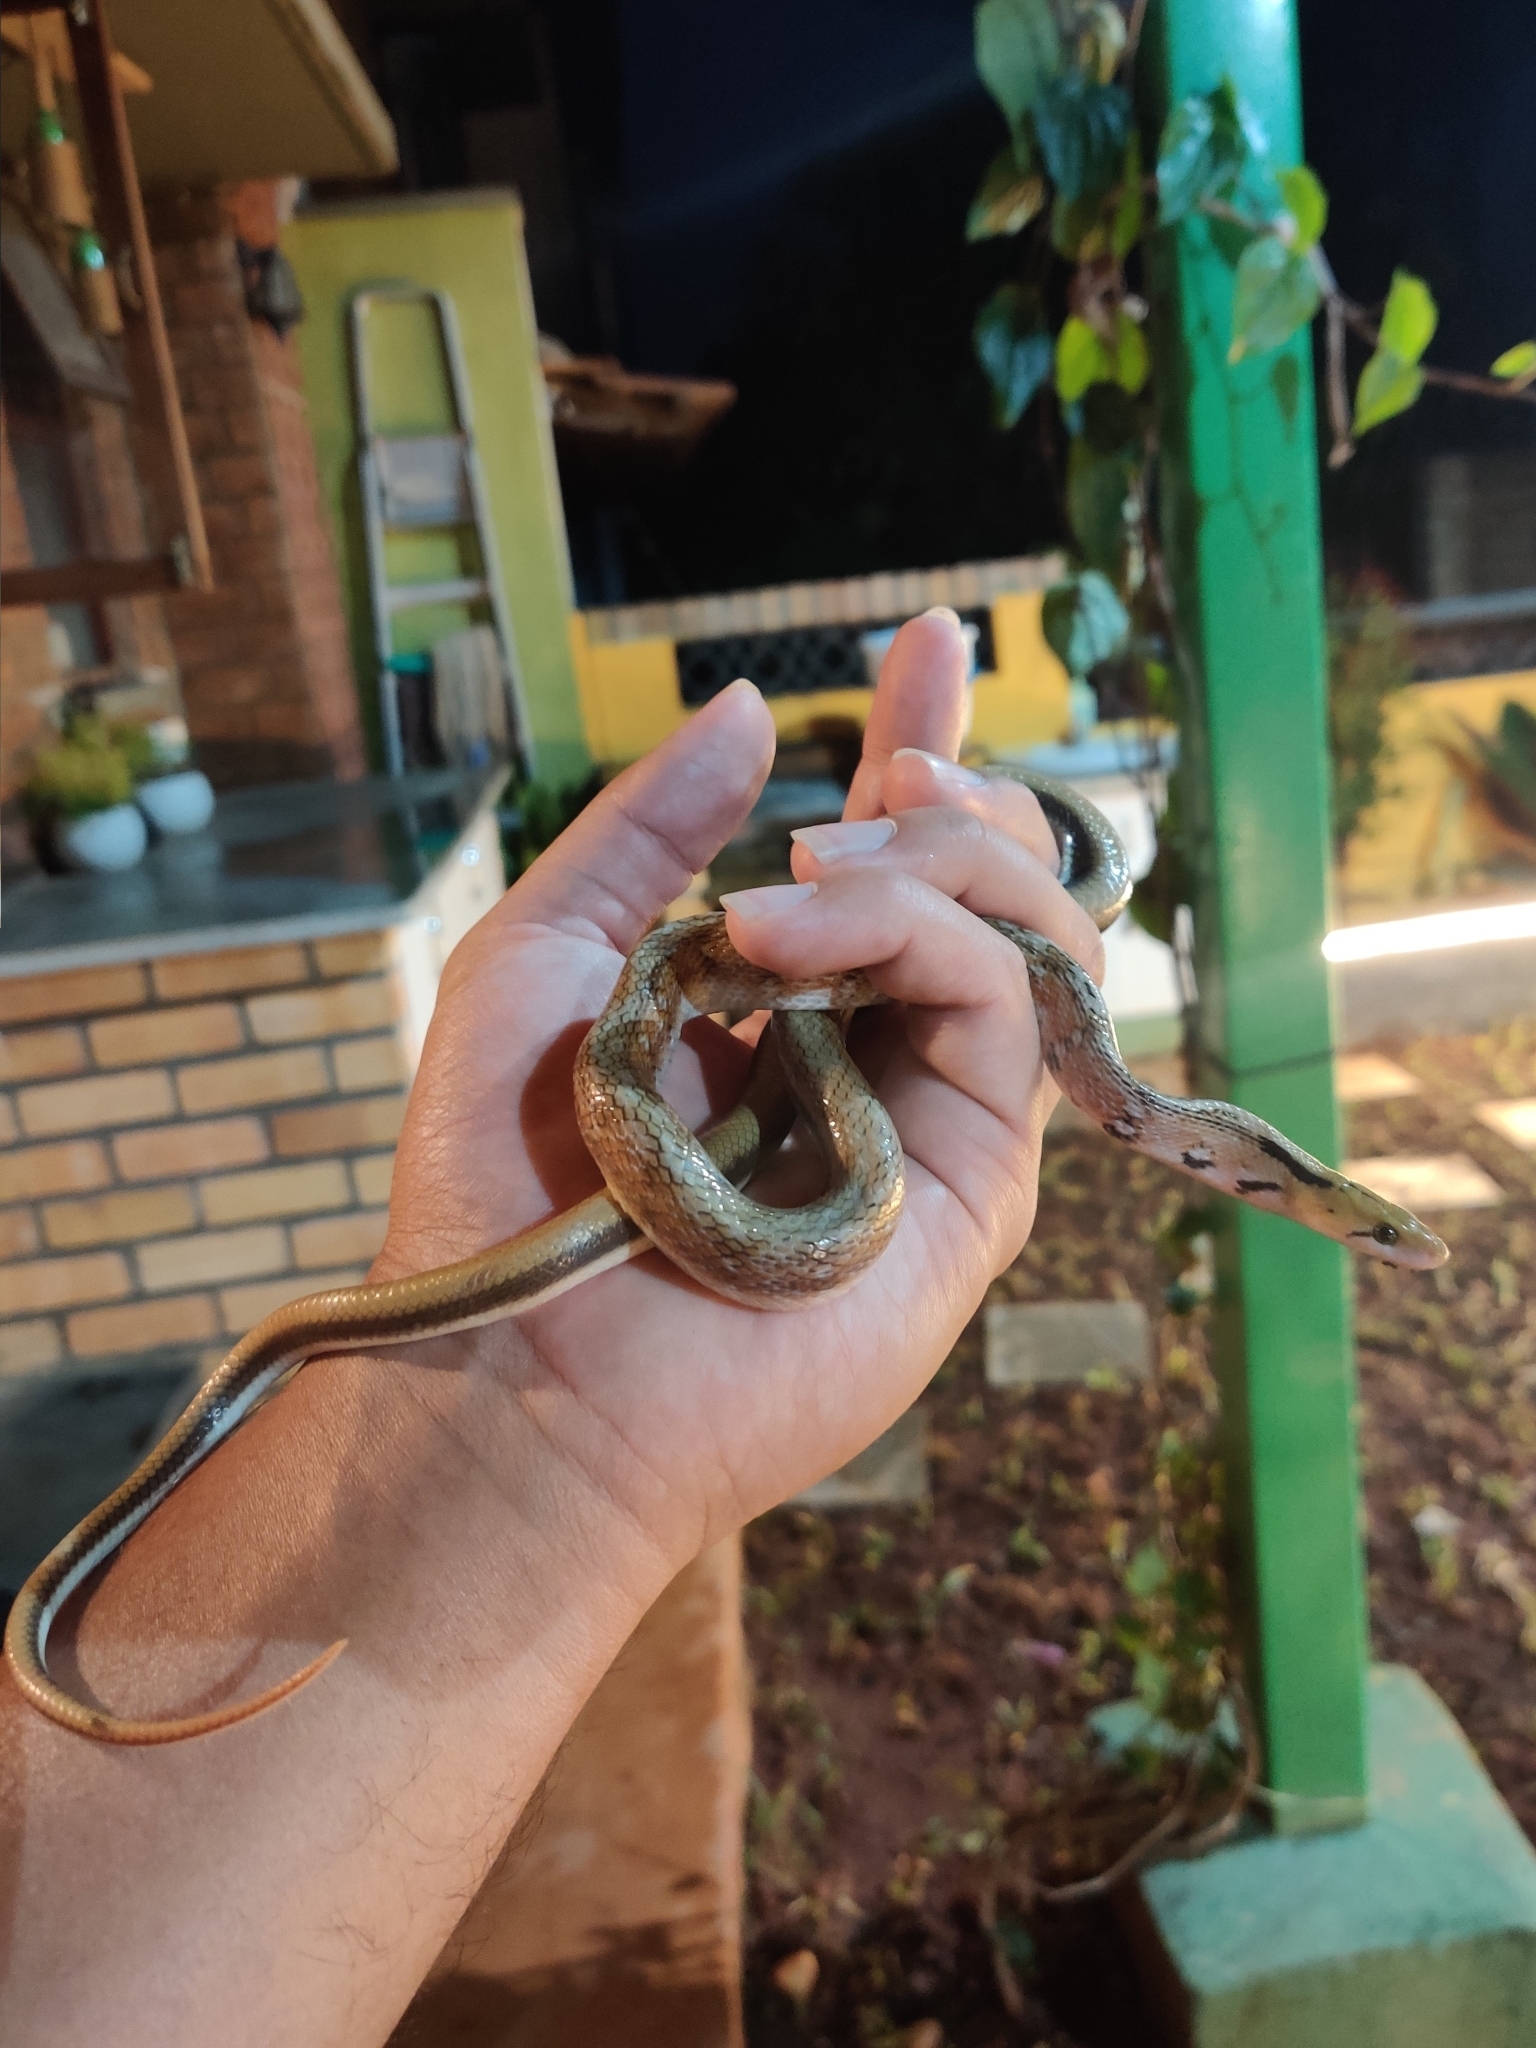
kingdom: Animalia
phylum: Chordata
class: Squamata
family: Colubridae
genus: Coelognathus
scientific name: Coelognathus helena
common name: Trinket snake
